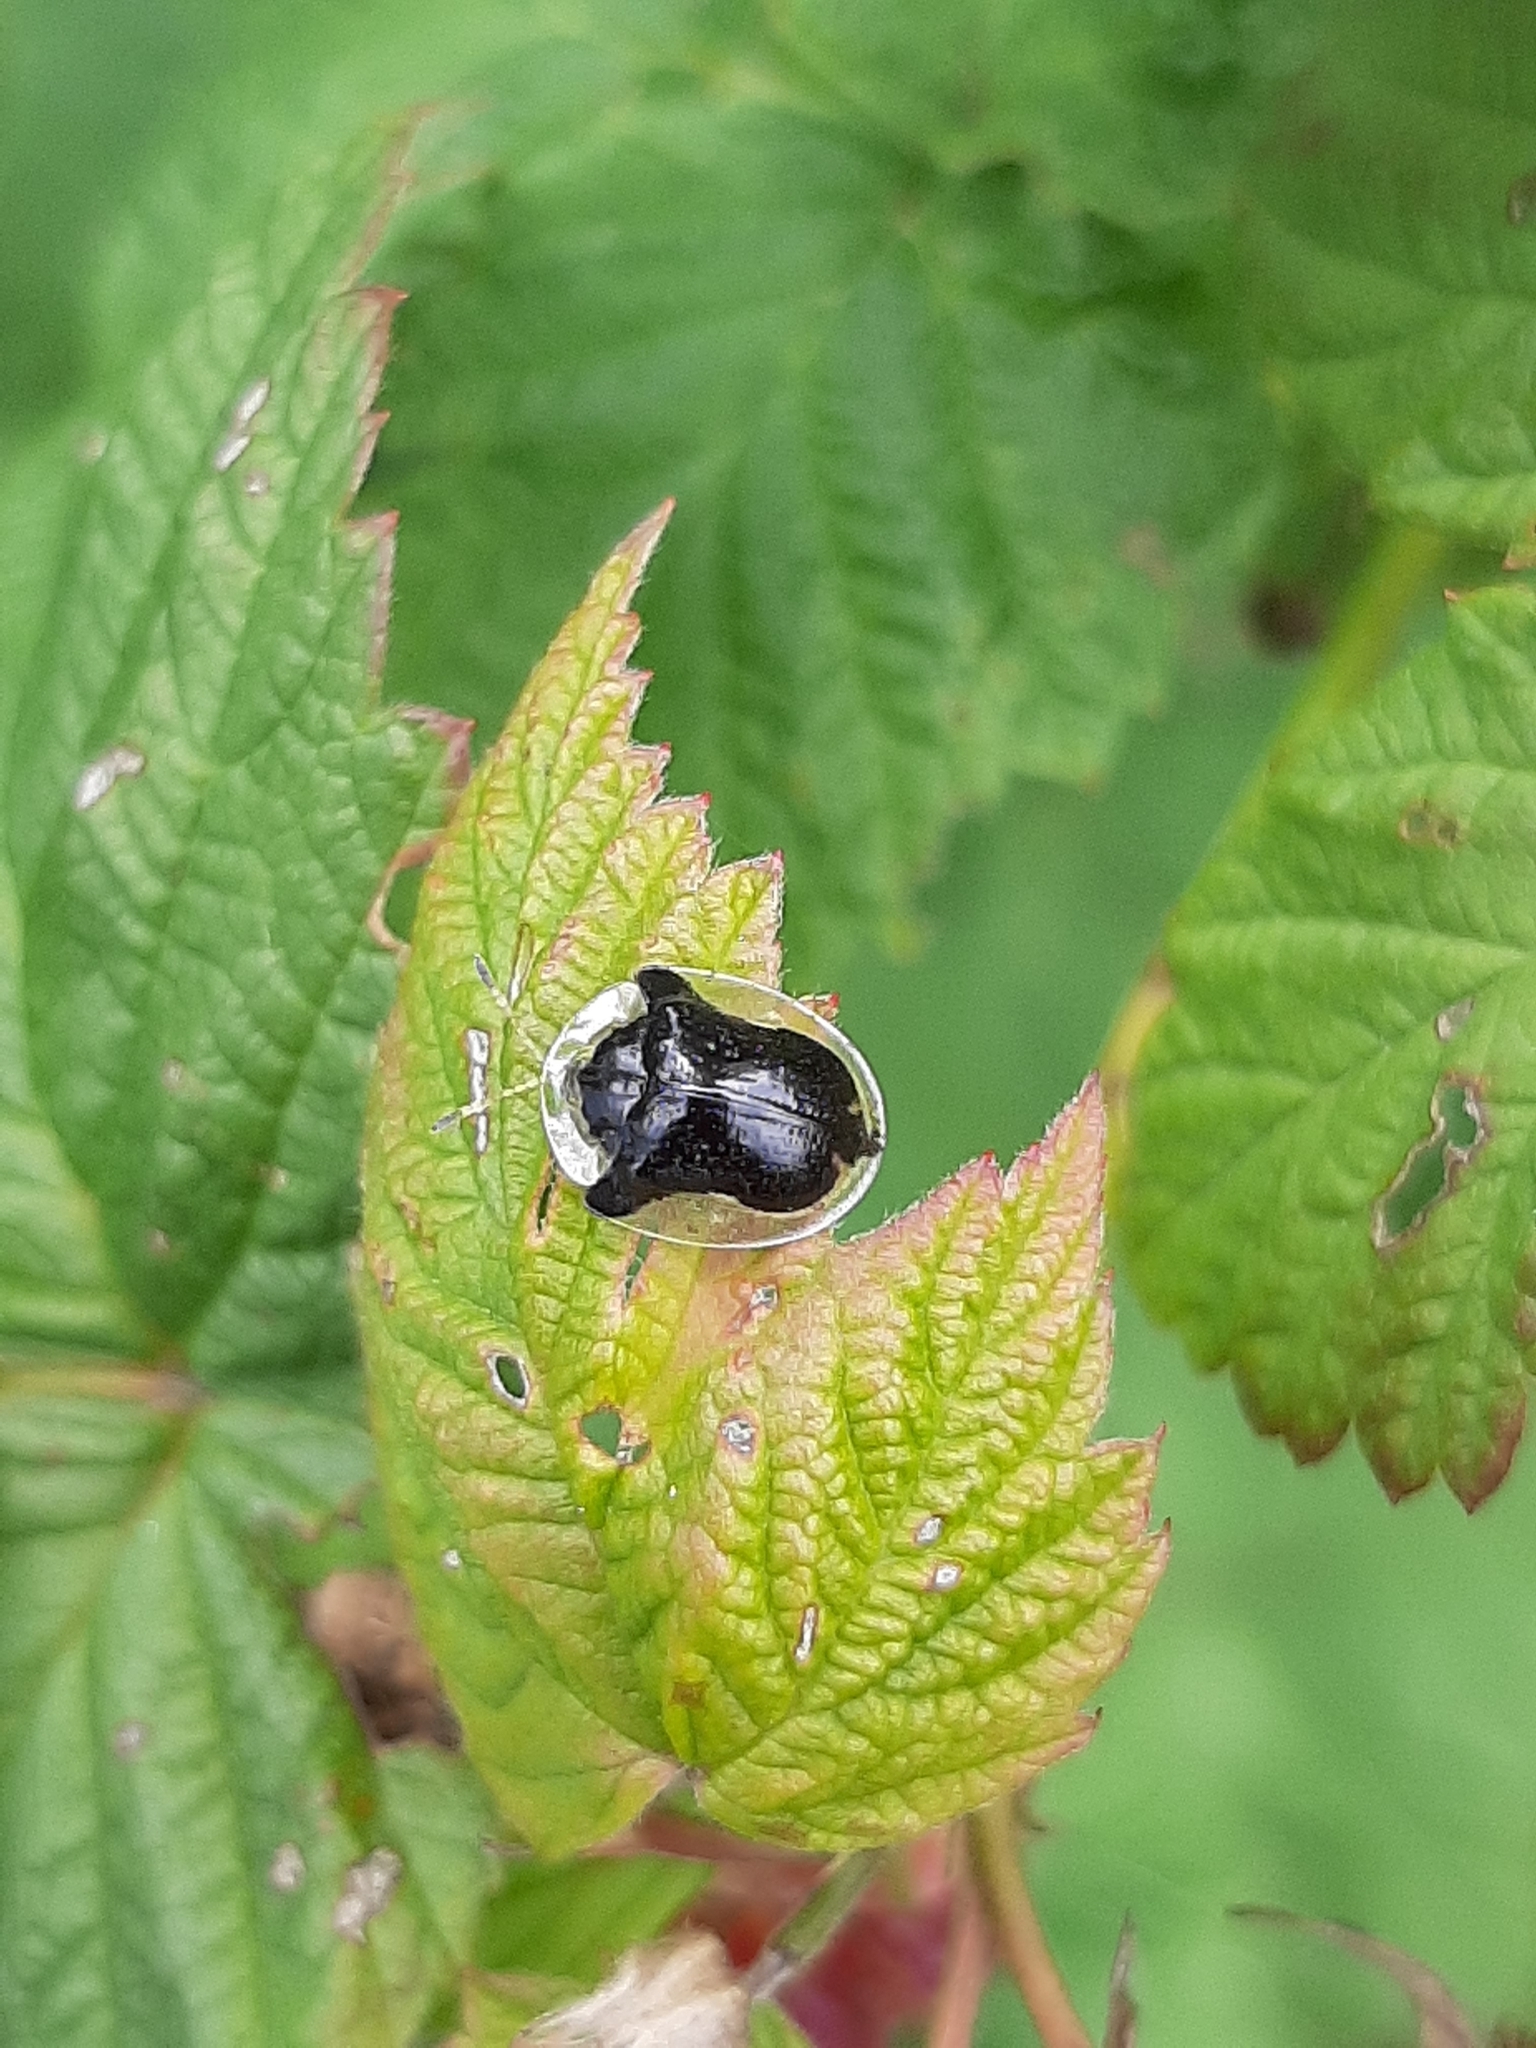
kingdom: Animalia
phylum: Arthropoda
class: Insecta
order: Coleoptera
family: Chrysomelidae
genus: Deloyala
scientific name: Deloyala guttata
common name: Mottled tortoise beetle
